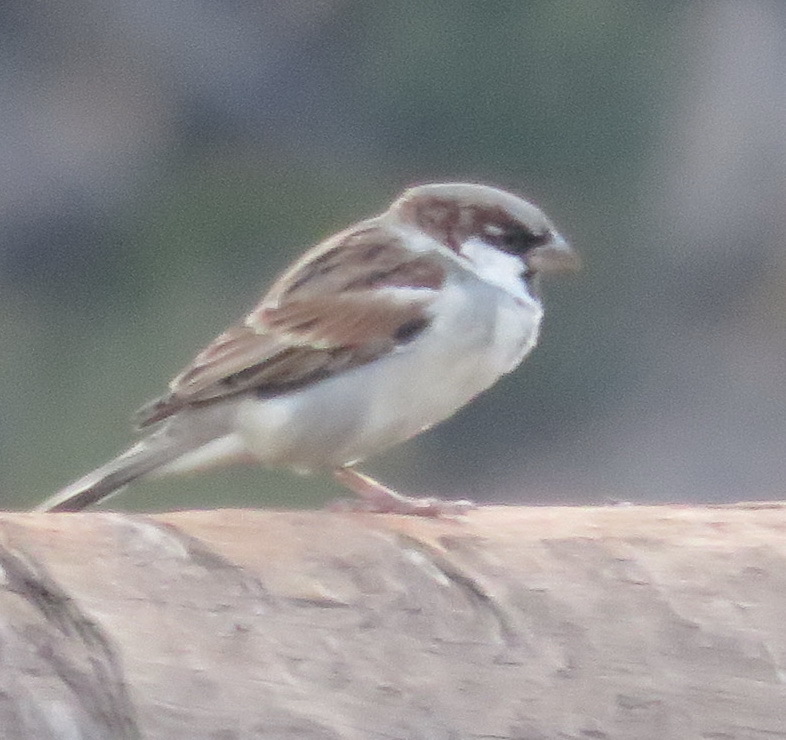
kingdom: Animalia
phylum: Chordata
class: Aves
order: Passeriformes
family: Passeridae
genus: Passer
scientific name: Passer domesticus
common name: House sparrow
